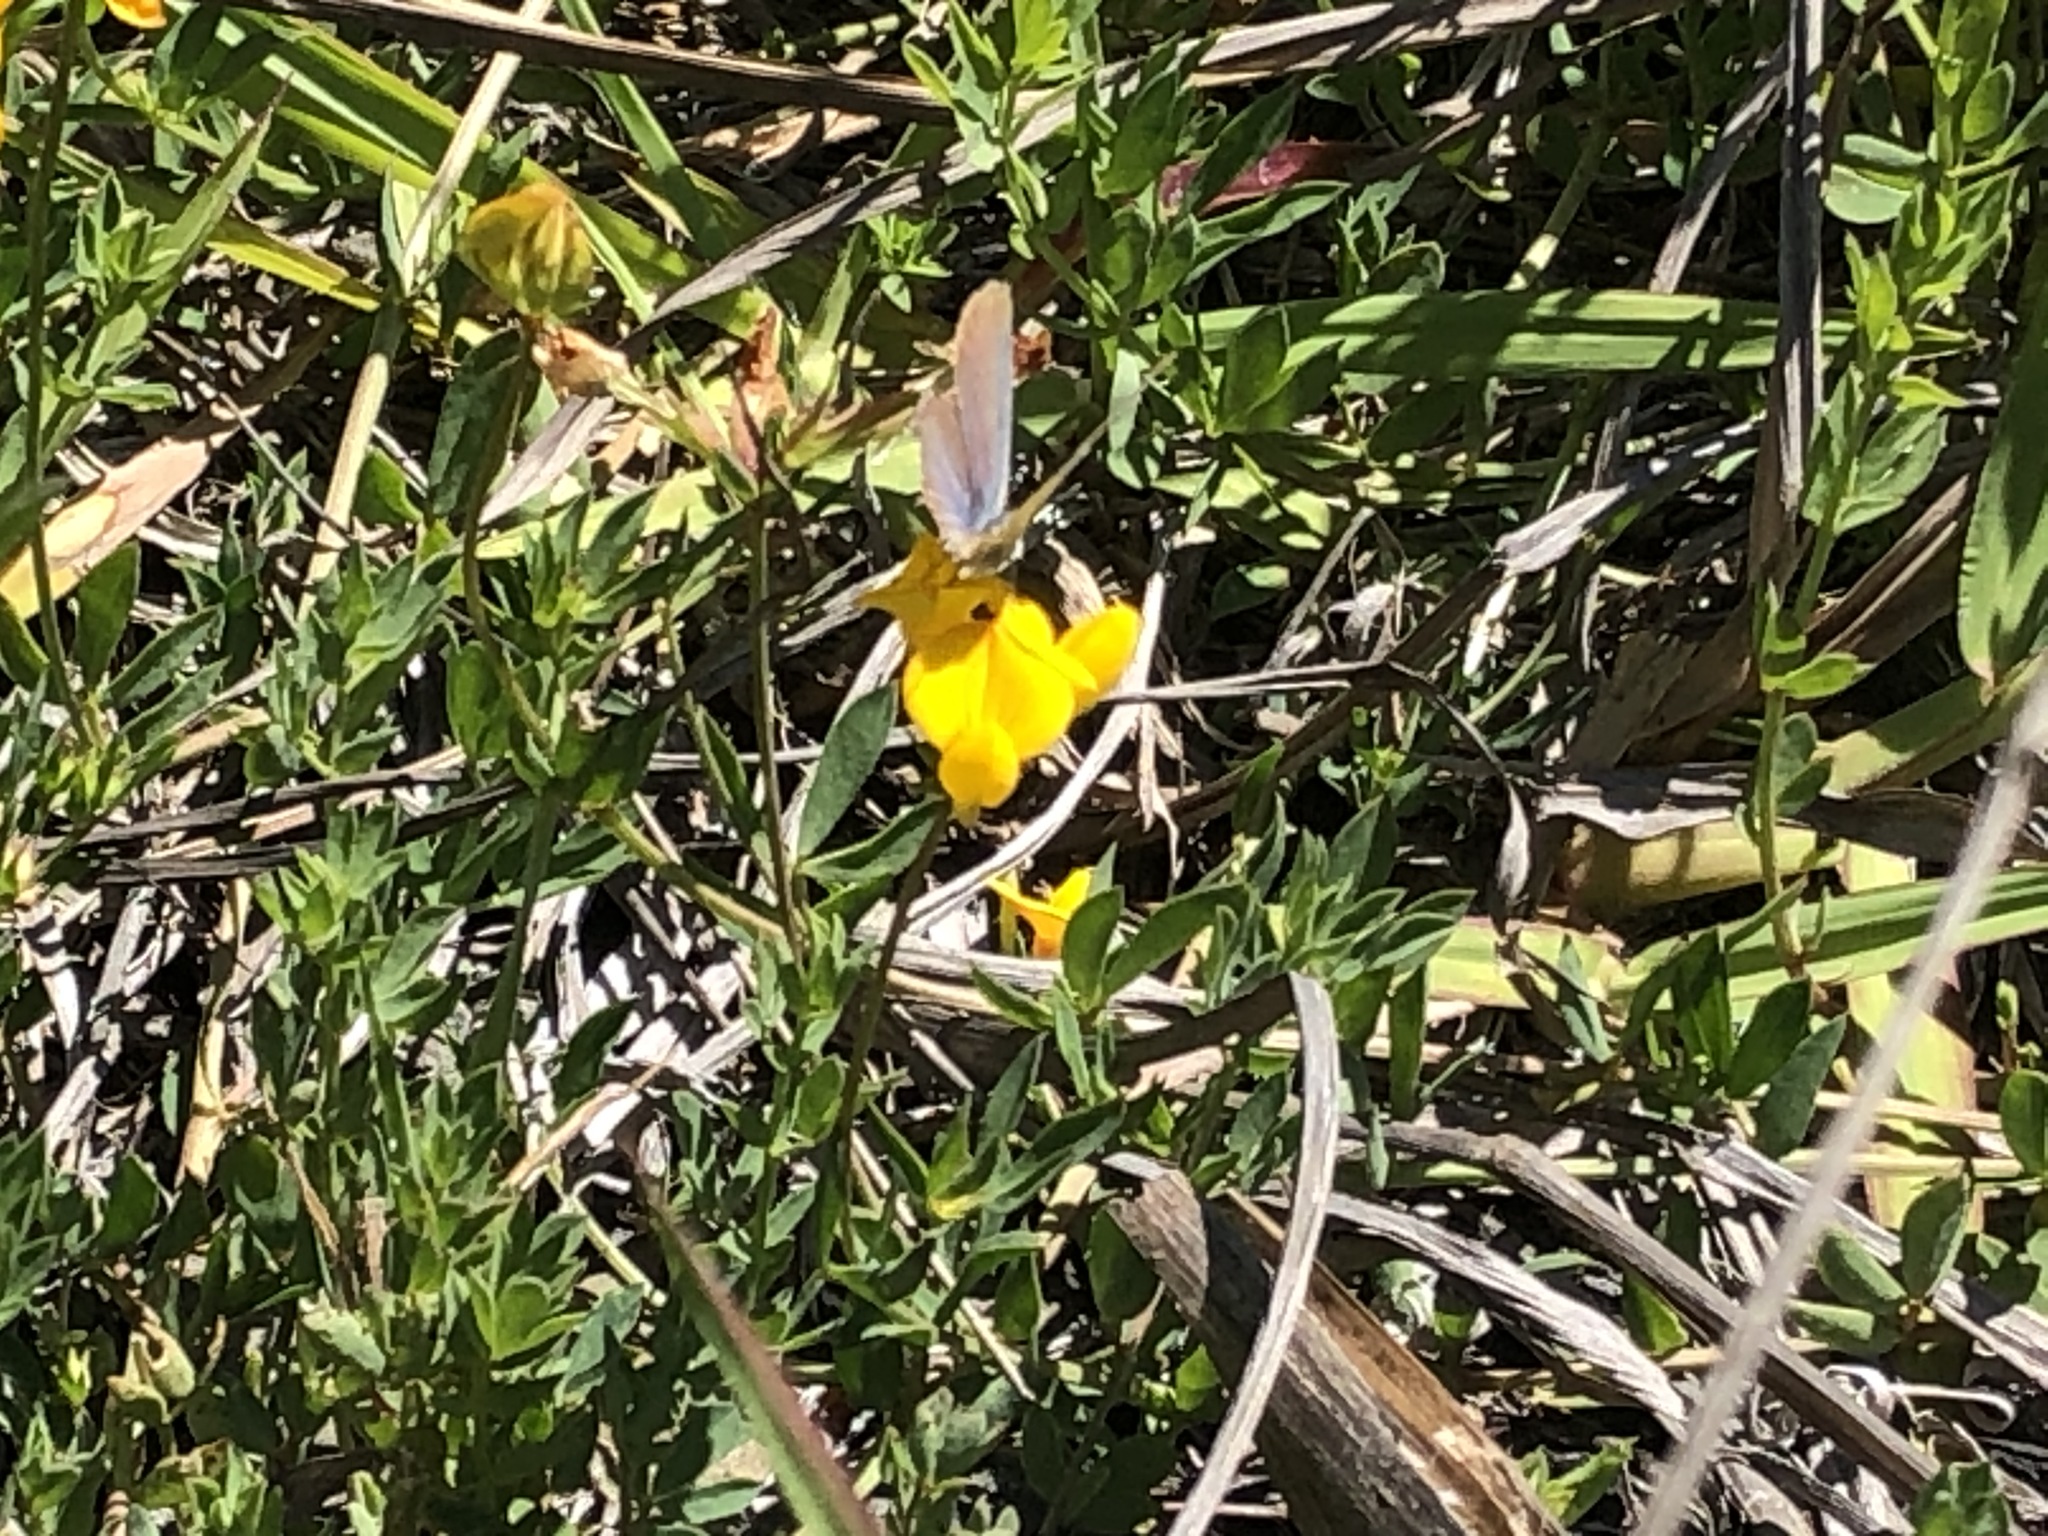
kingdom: Animalia
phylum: Arthropoda
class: Insecta
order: Lepidoptera
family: Lycaenidae
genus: Elkalyce
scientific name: Elkalyce amyntula
